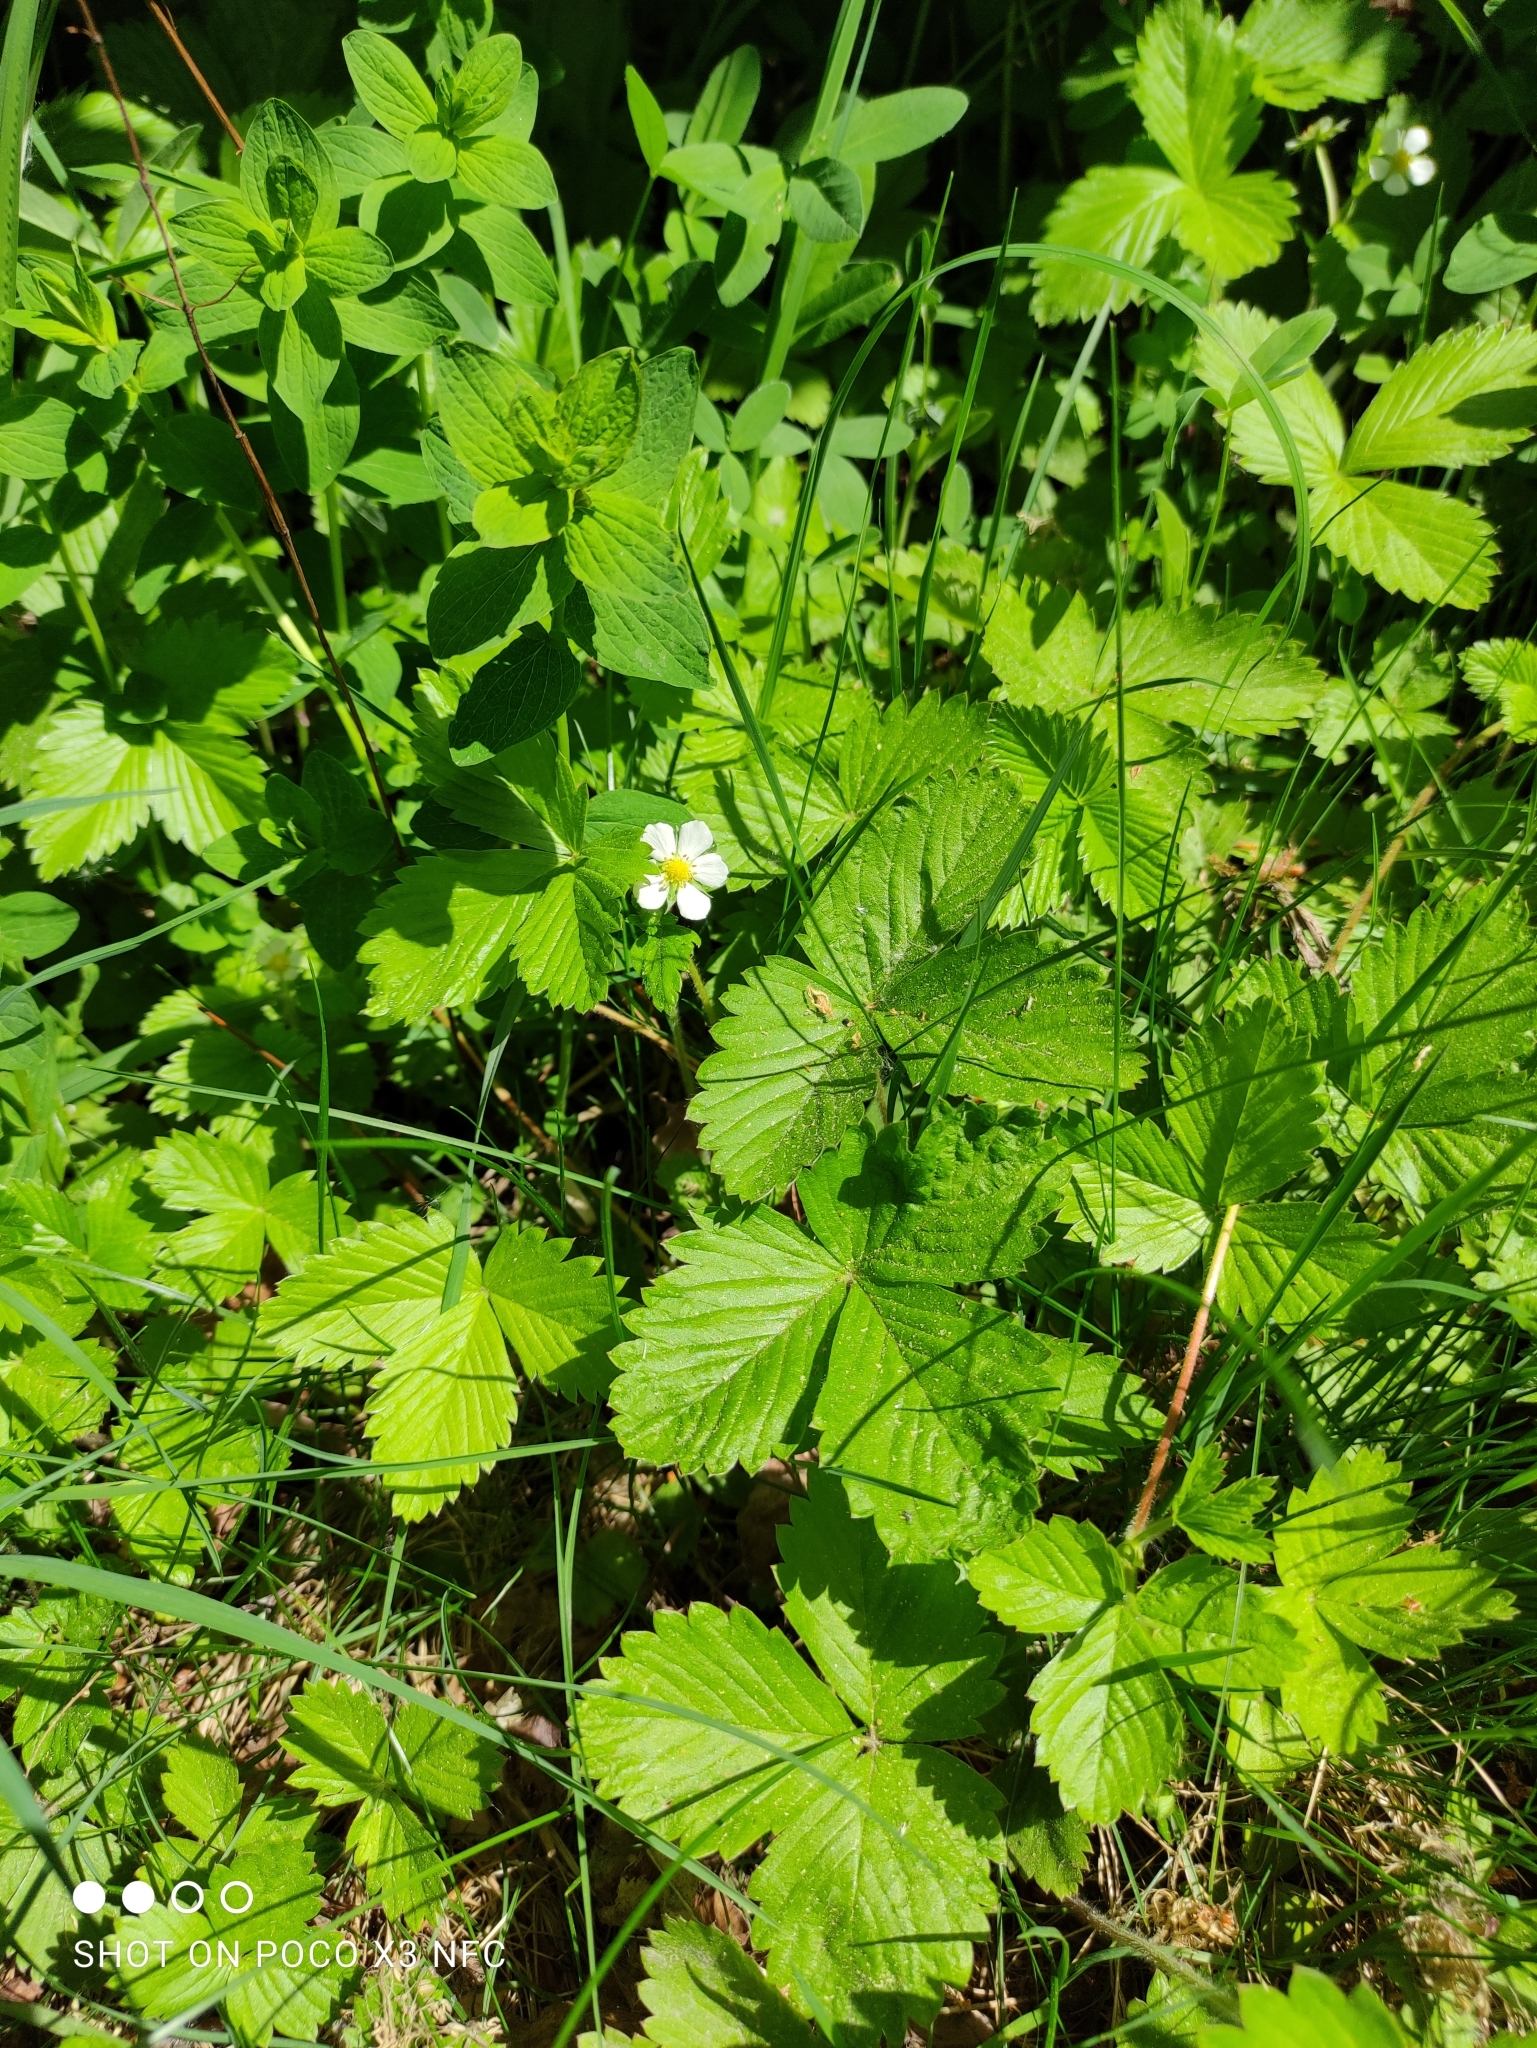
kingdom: Plantae
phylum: Tracheophyta
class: Magnoliopsida
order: Rosales
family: Rosaceae
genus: Fragaria
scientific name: Fragaria vesca
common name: Wild strawberry
